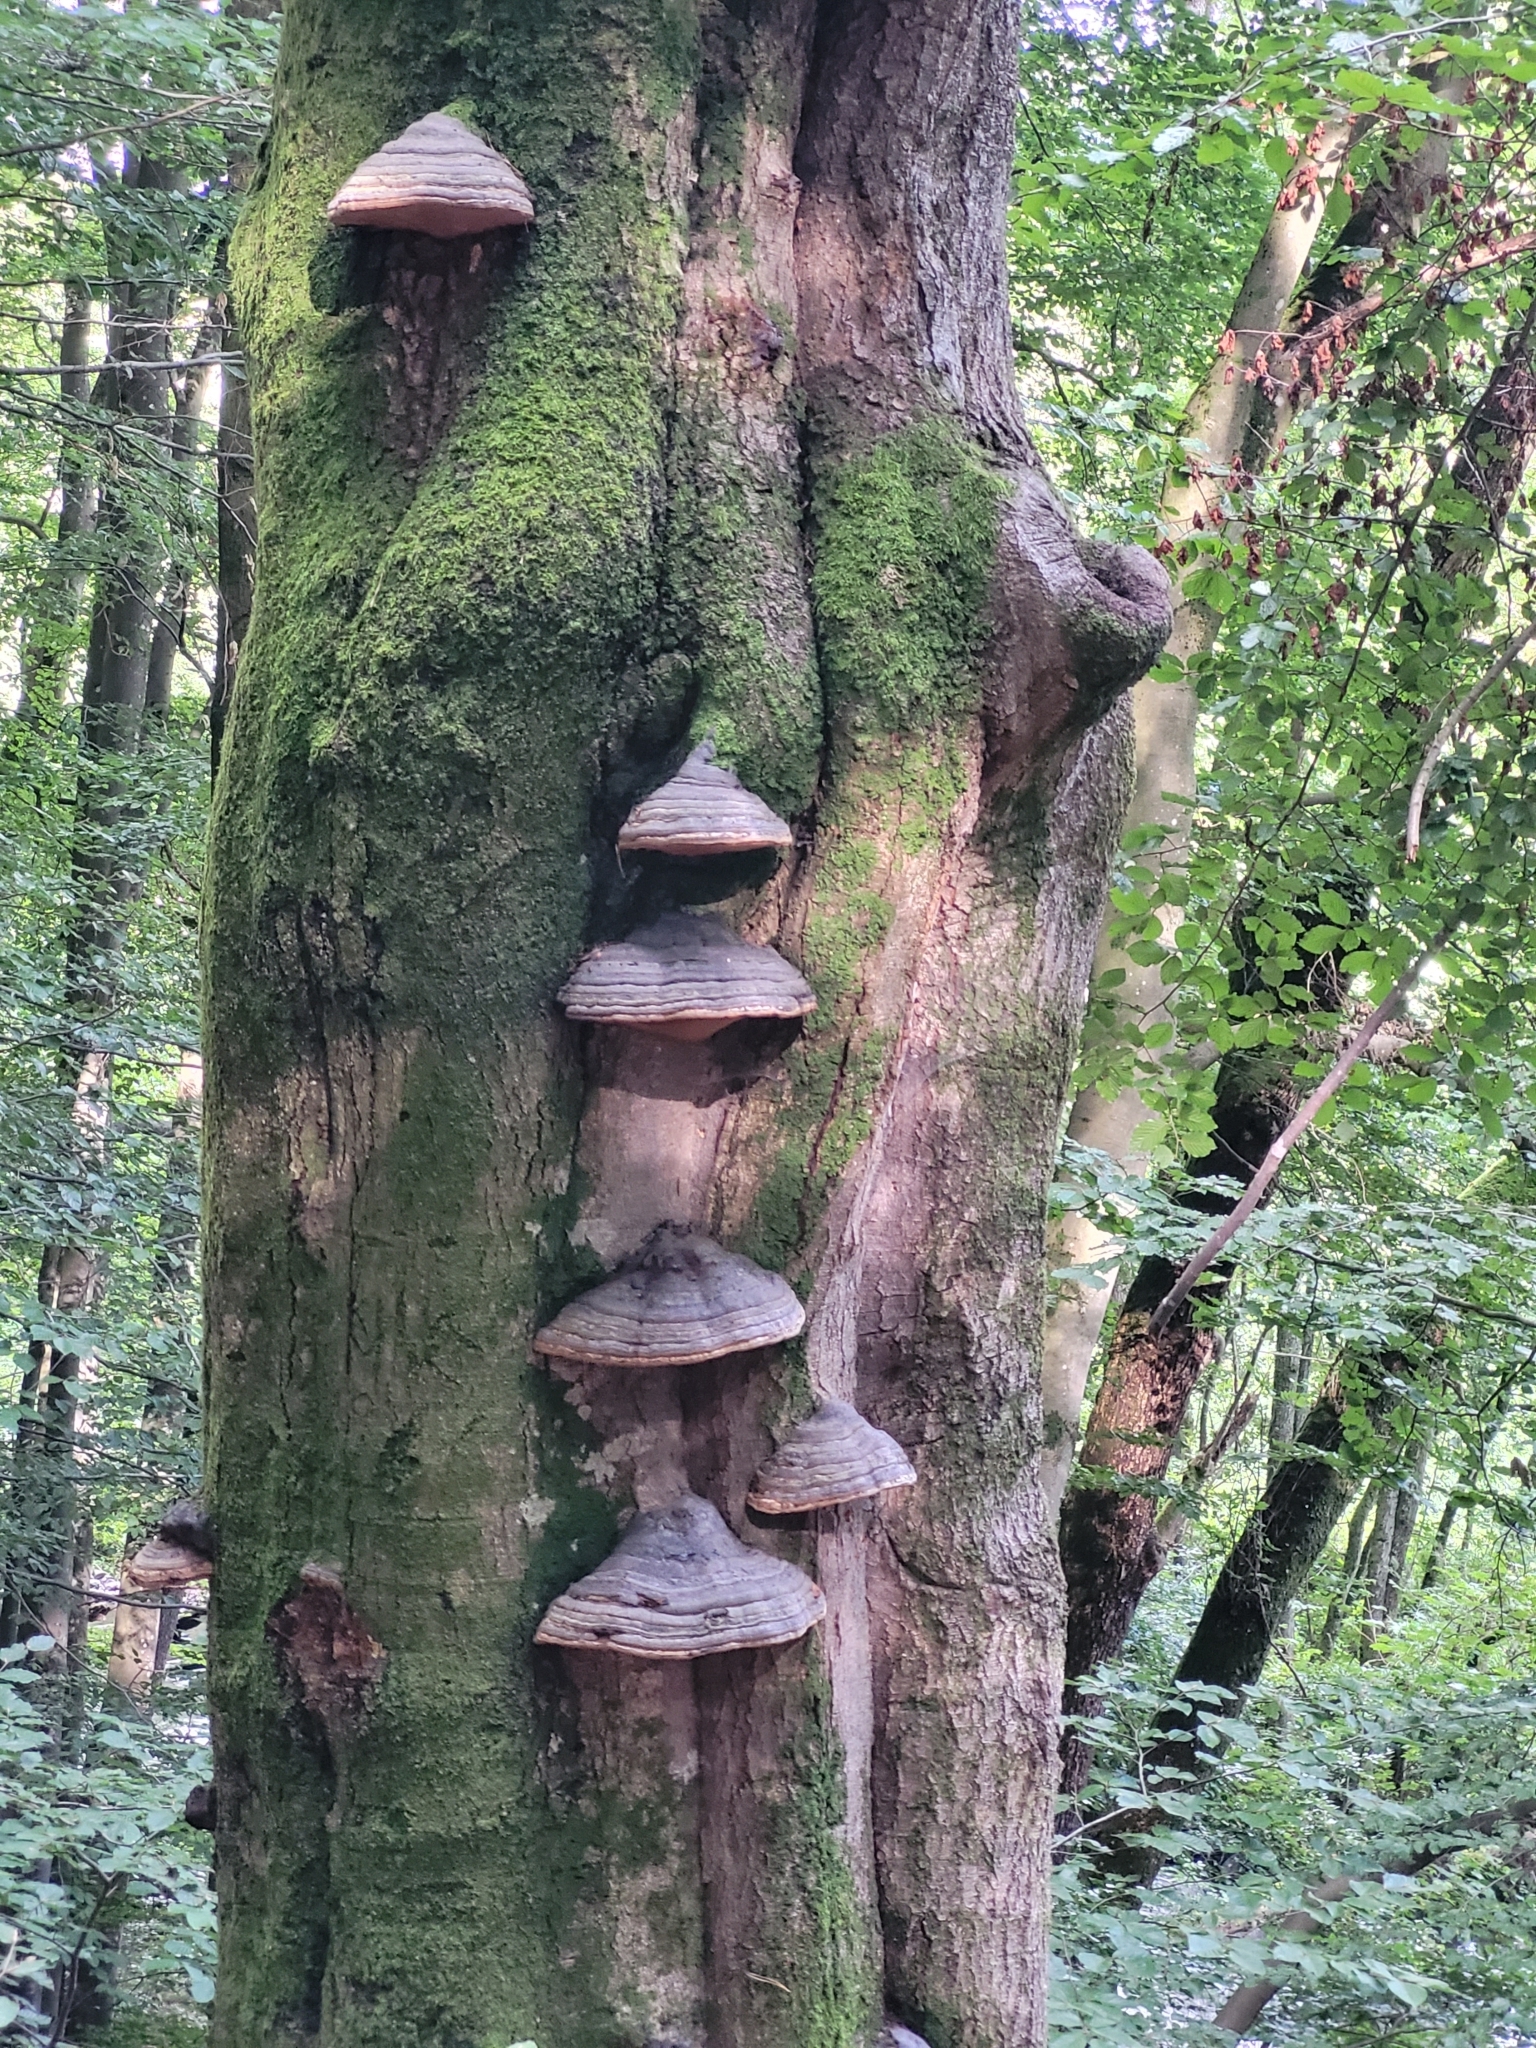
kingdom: Fungi
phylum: Basidiomycota
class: Agaricomycetes
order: Polyporales
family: Polyporaceae
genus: Fomes
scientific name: Fomes fomentarius
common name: Hoof fungus
